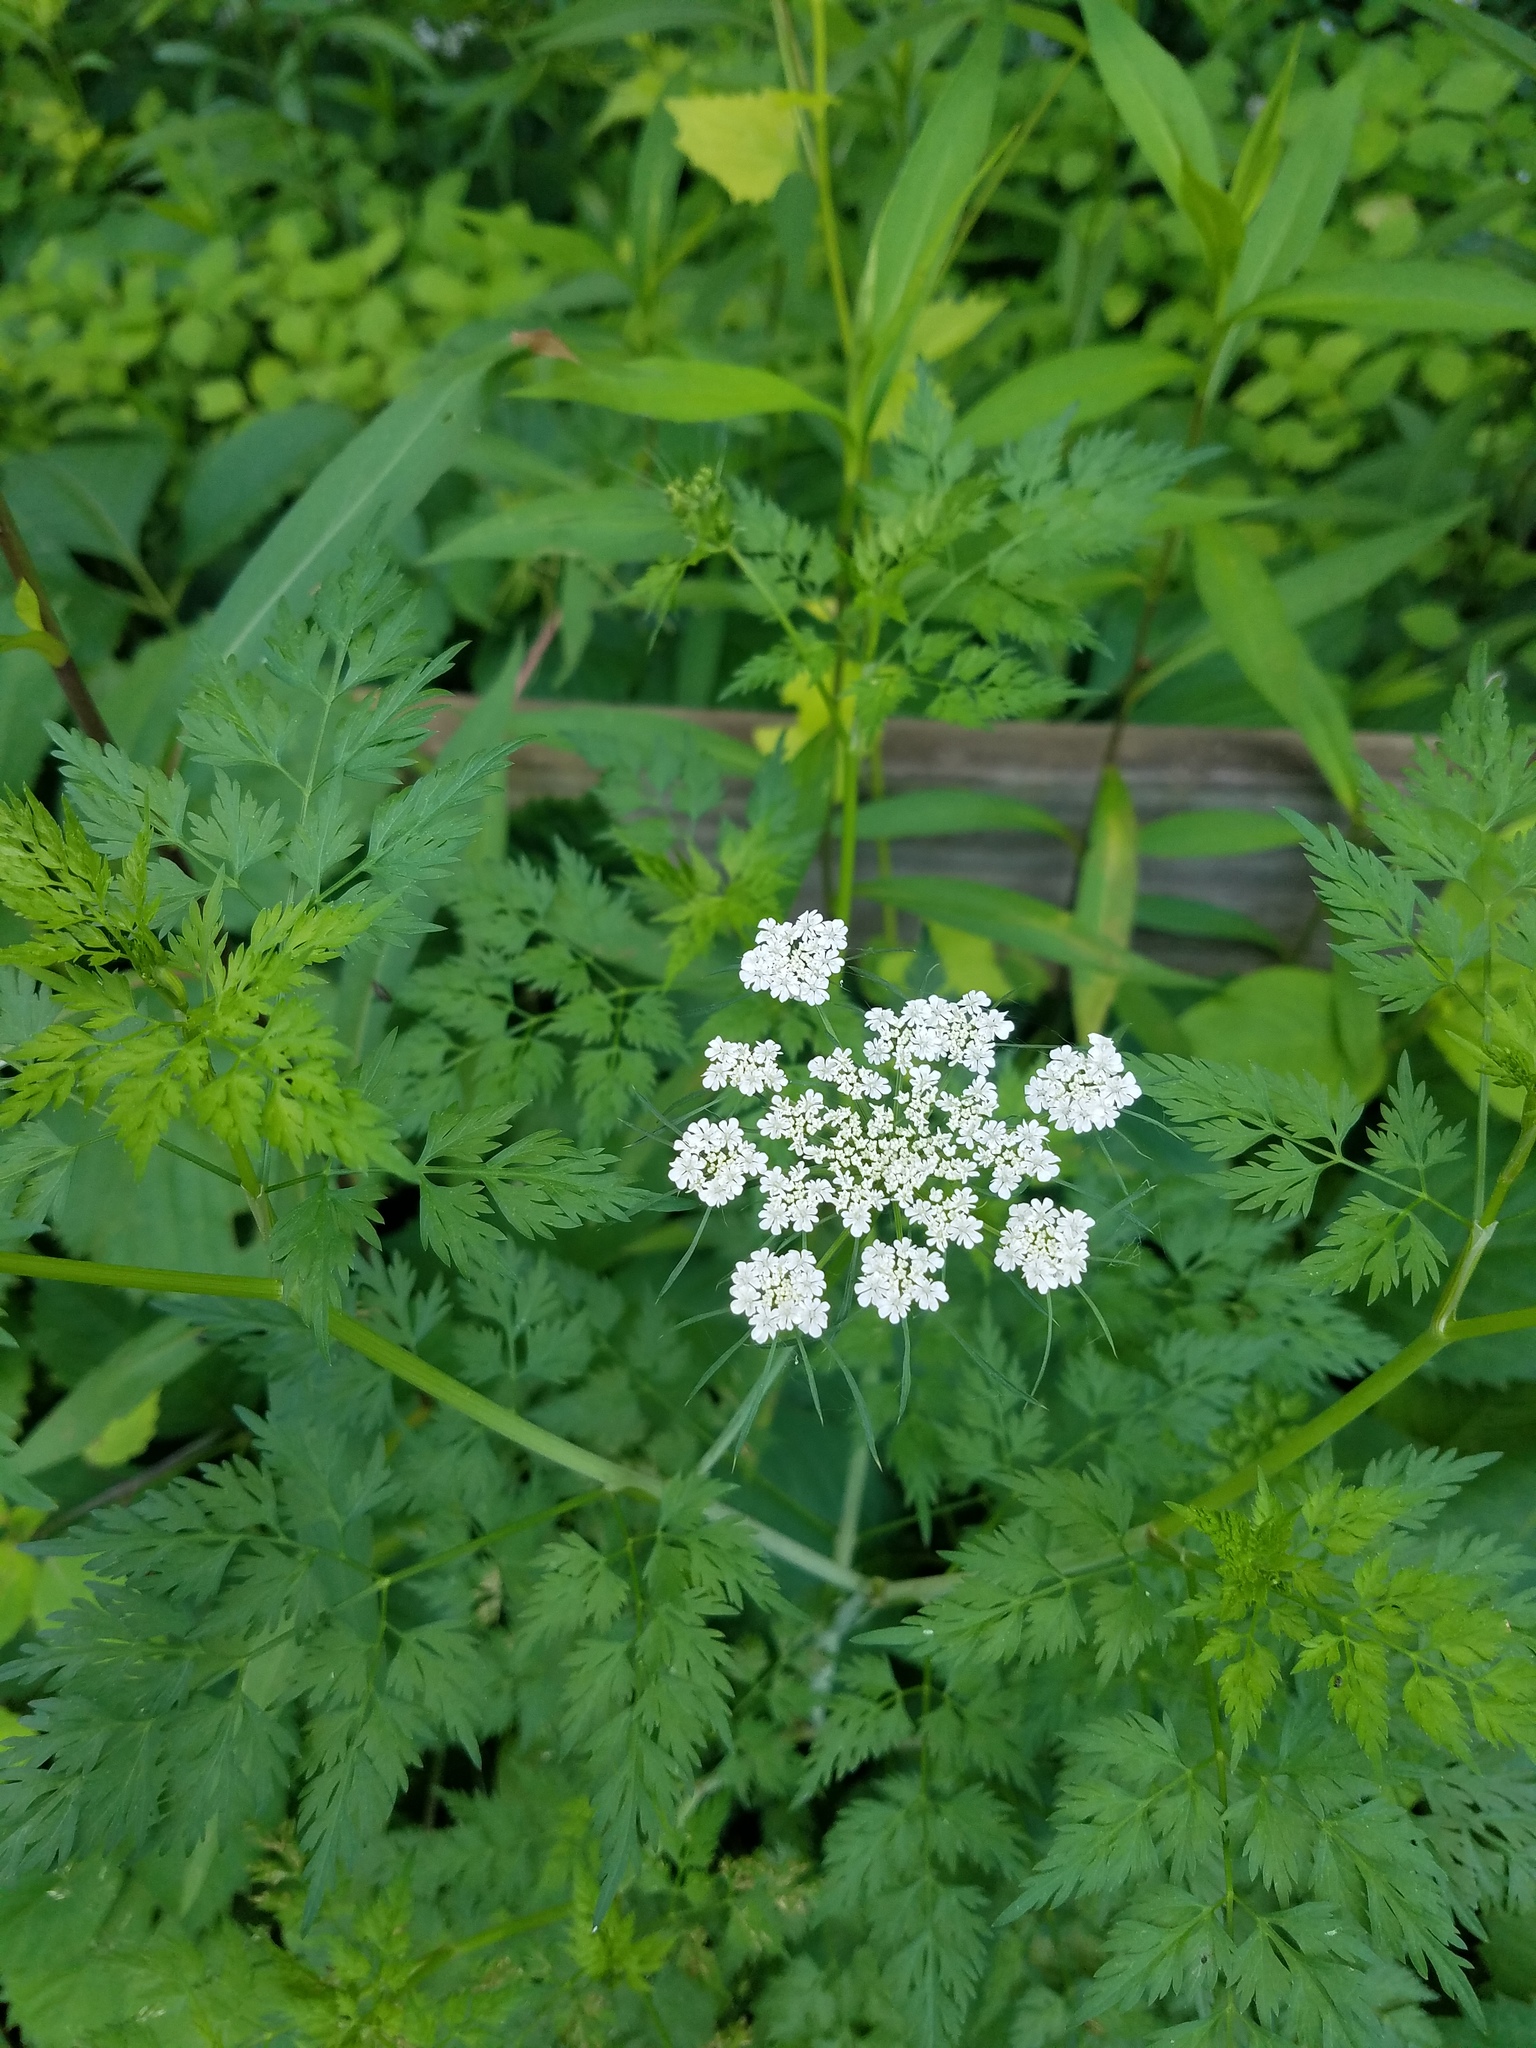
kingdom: Plantae
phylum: Tracheophyta
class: Magnoliopsida
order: Apiales
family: Apiaceae
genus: Daucus
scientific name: Daucus carota
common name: Wild carrot
